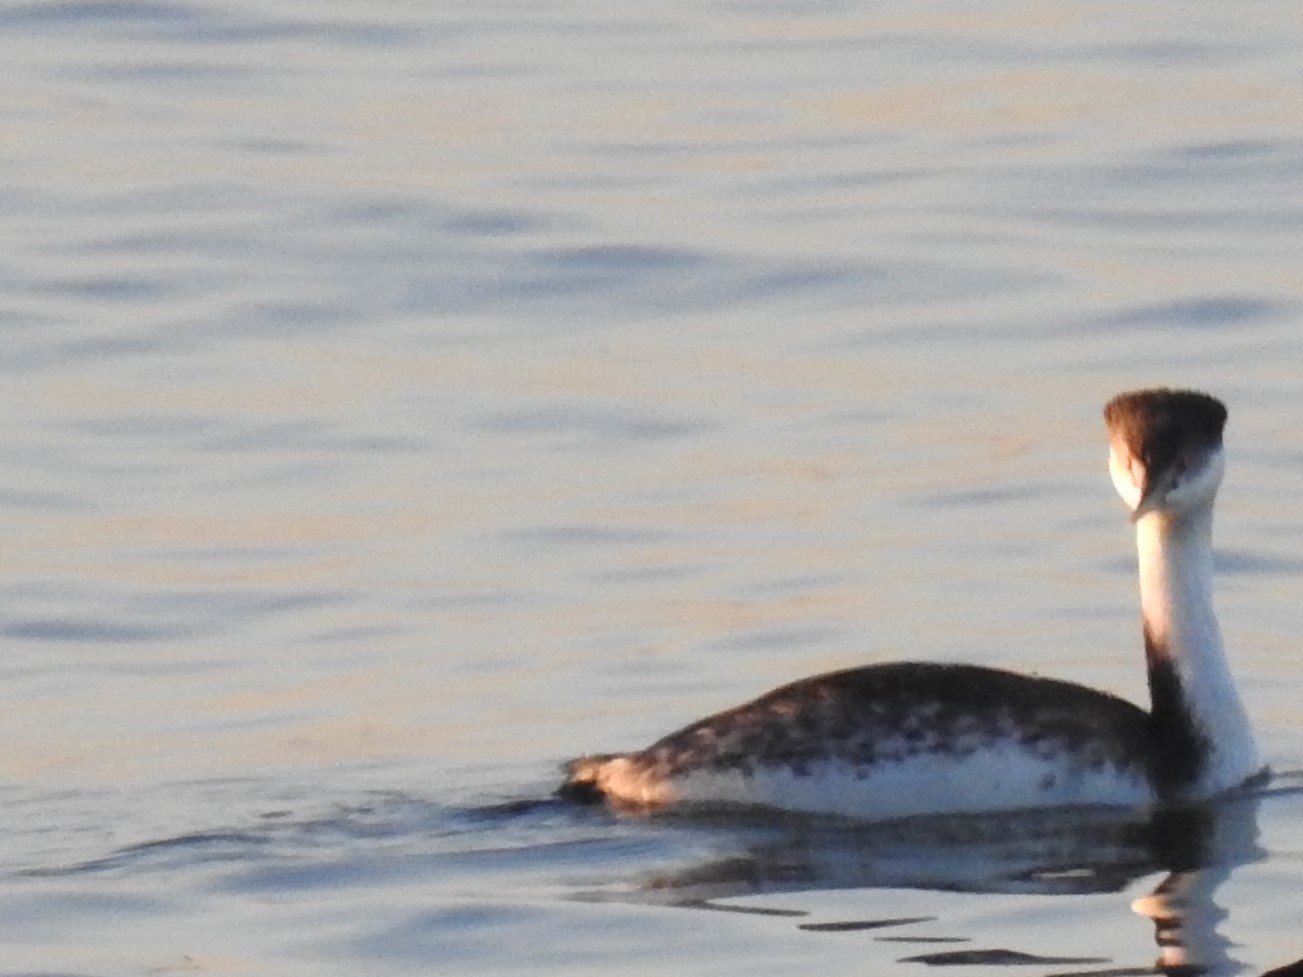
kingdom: Animalia
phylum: Chordata
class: Aves
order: Podicipediformes
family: Podicipedidae
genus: Aechmophorus
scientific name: Aechmophorus occidentalis
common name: Western grebe
